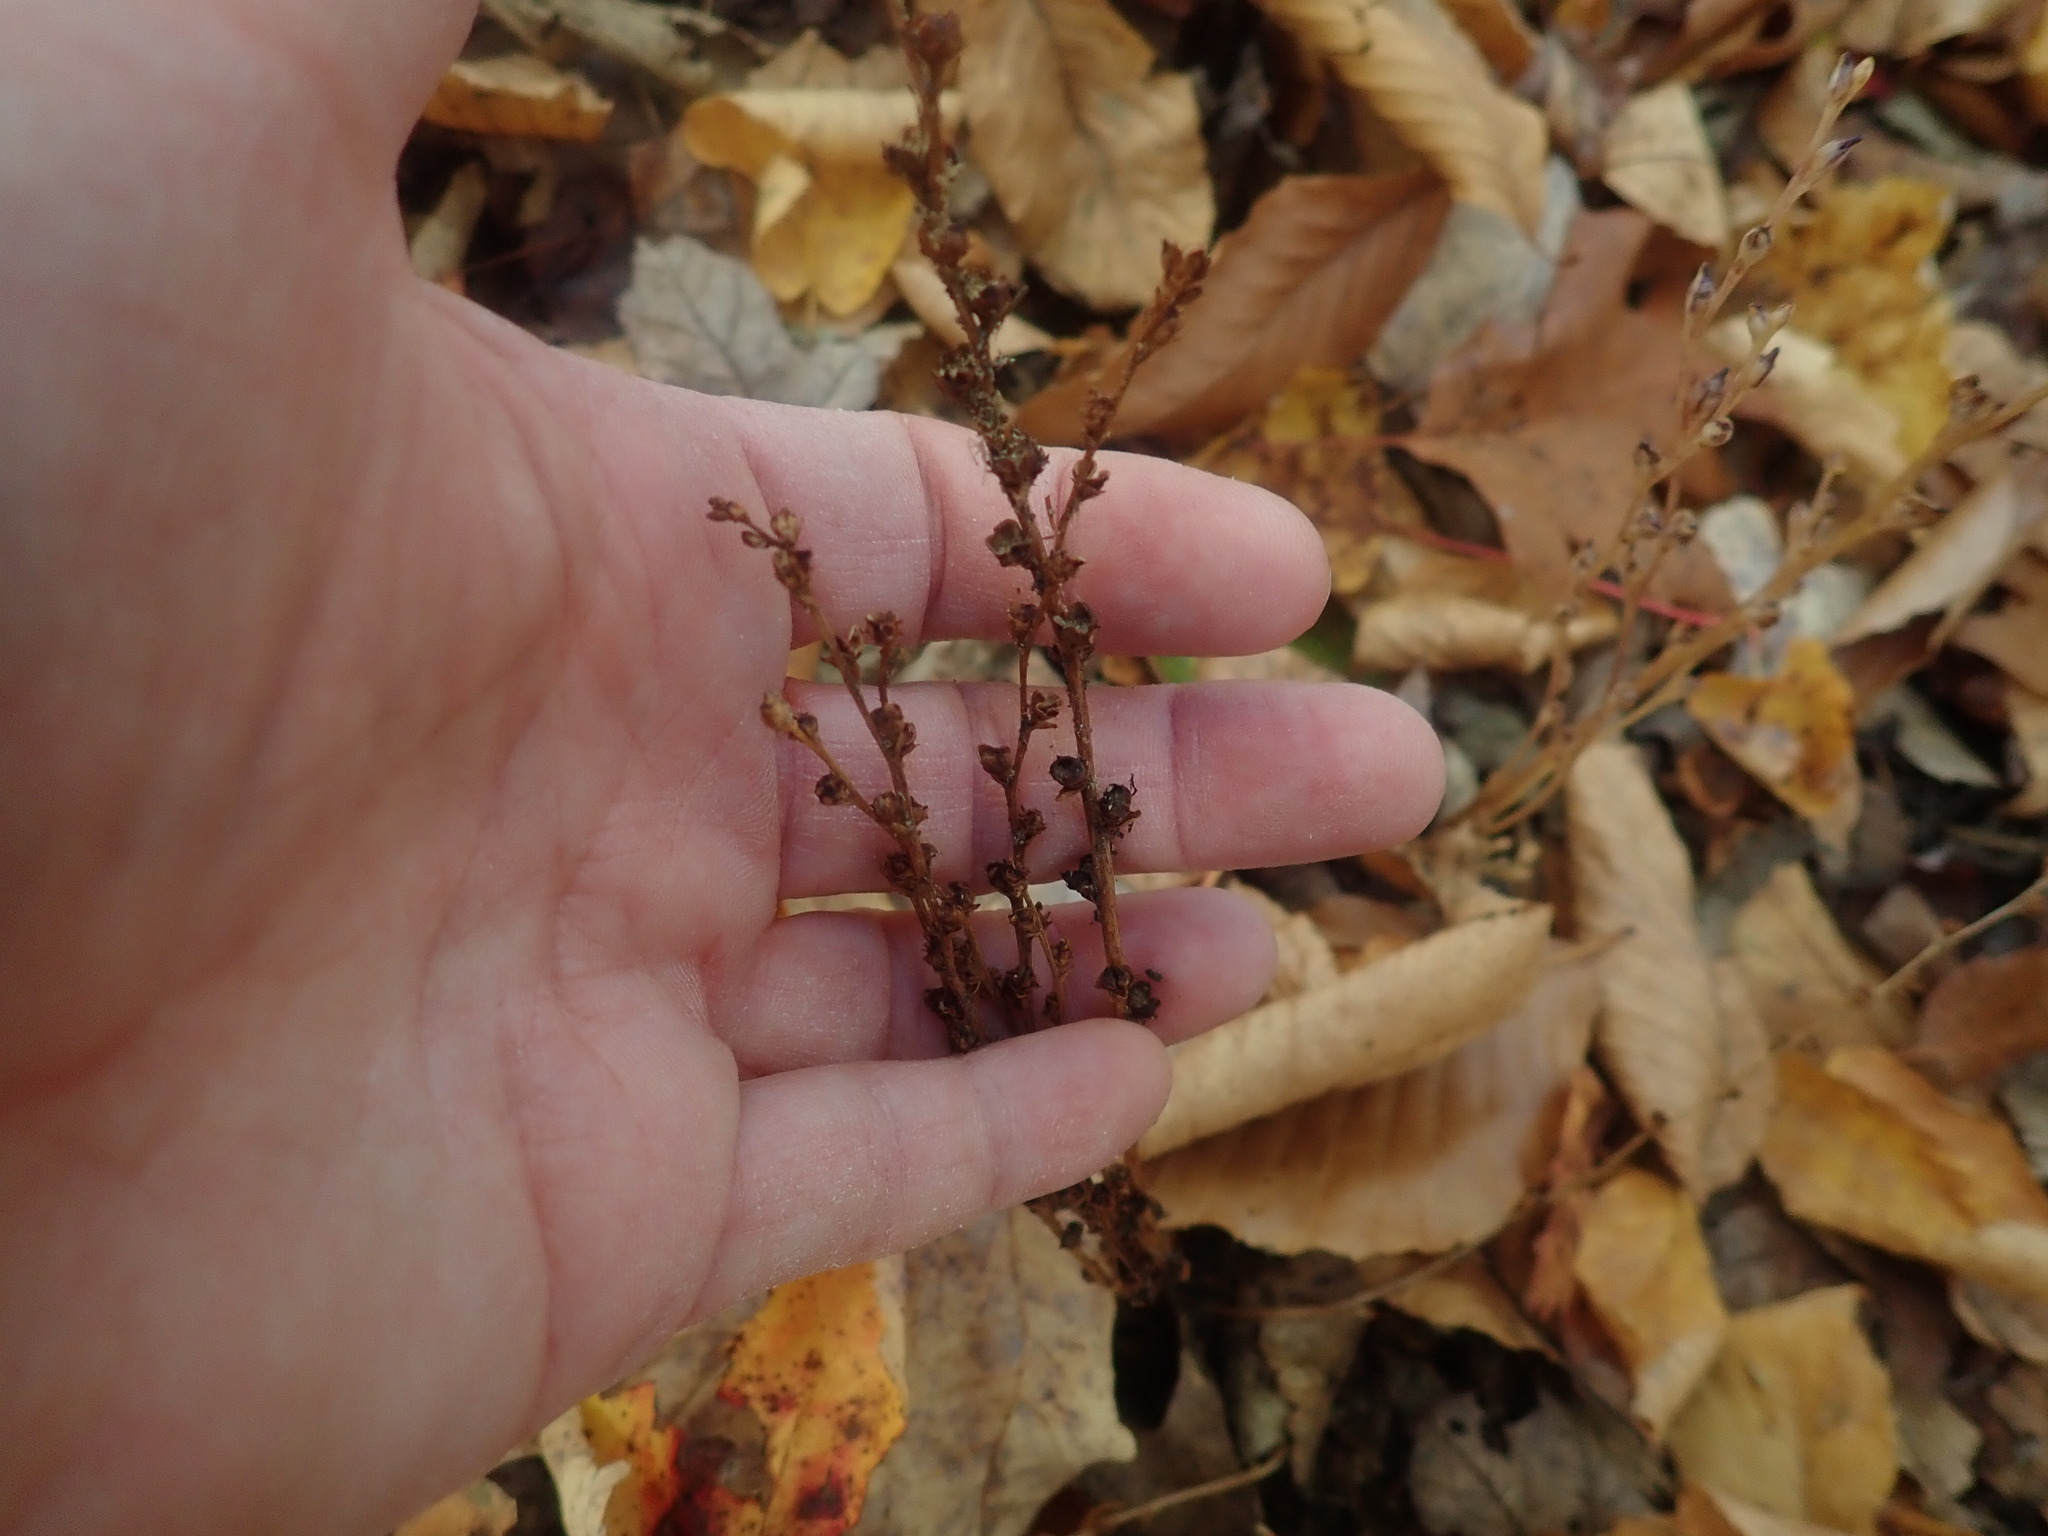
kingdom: Plantae
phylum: Tracheophyta
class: Magnoliopsida
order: Lamiales
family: Orobanchaceae
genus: Epifagus
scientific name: Epifagus virginiana
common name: Beechdrops
